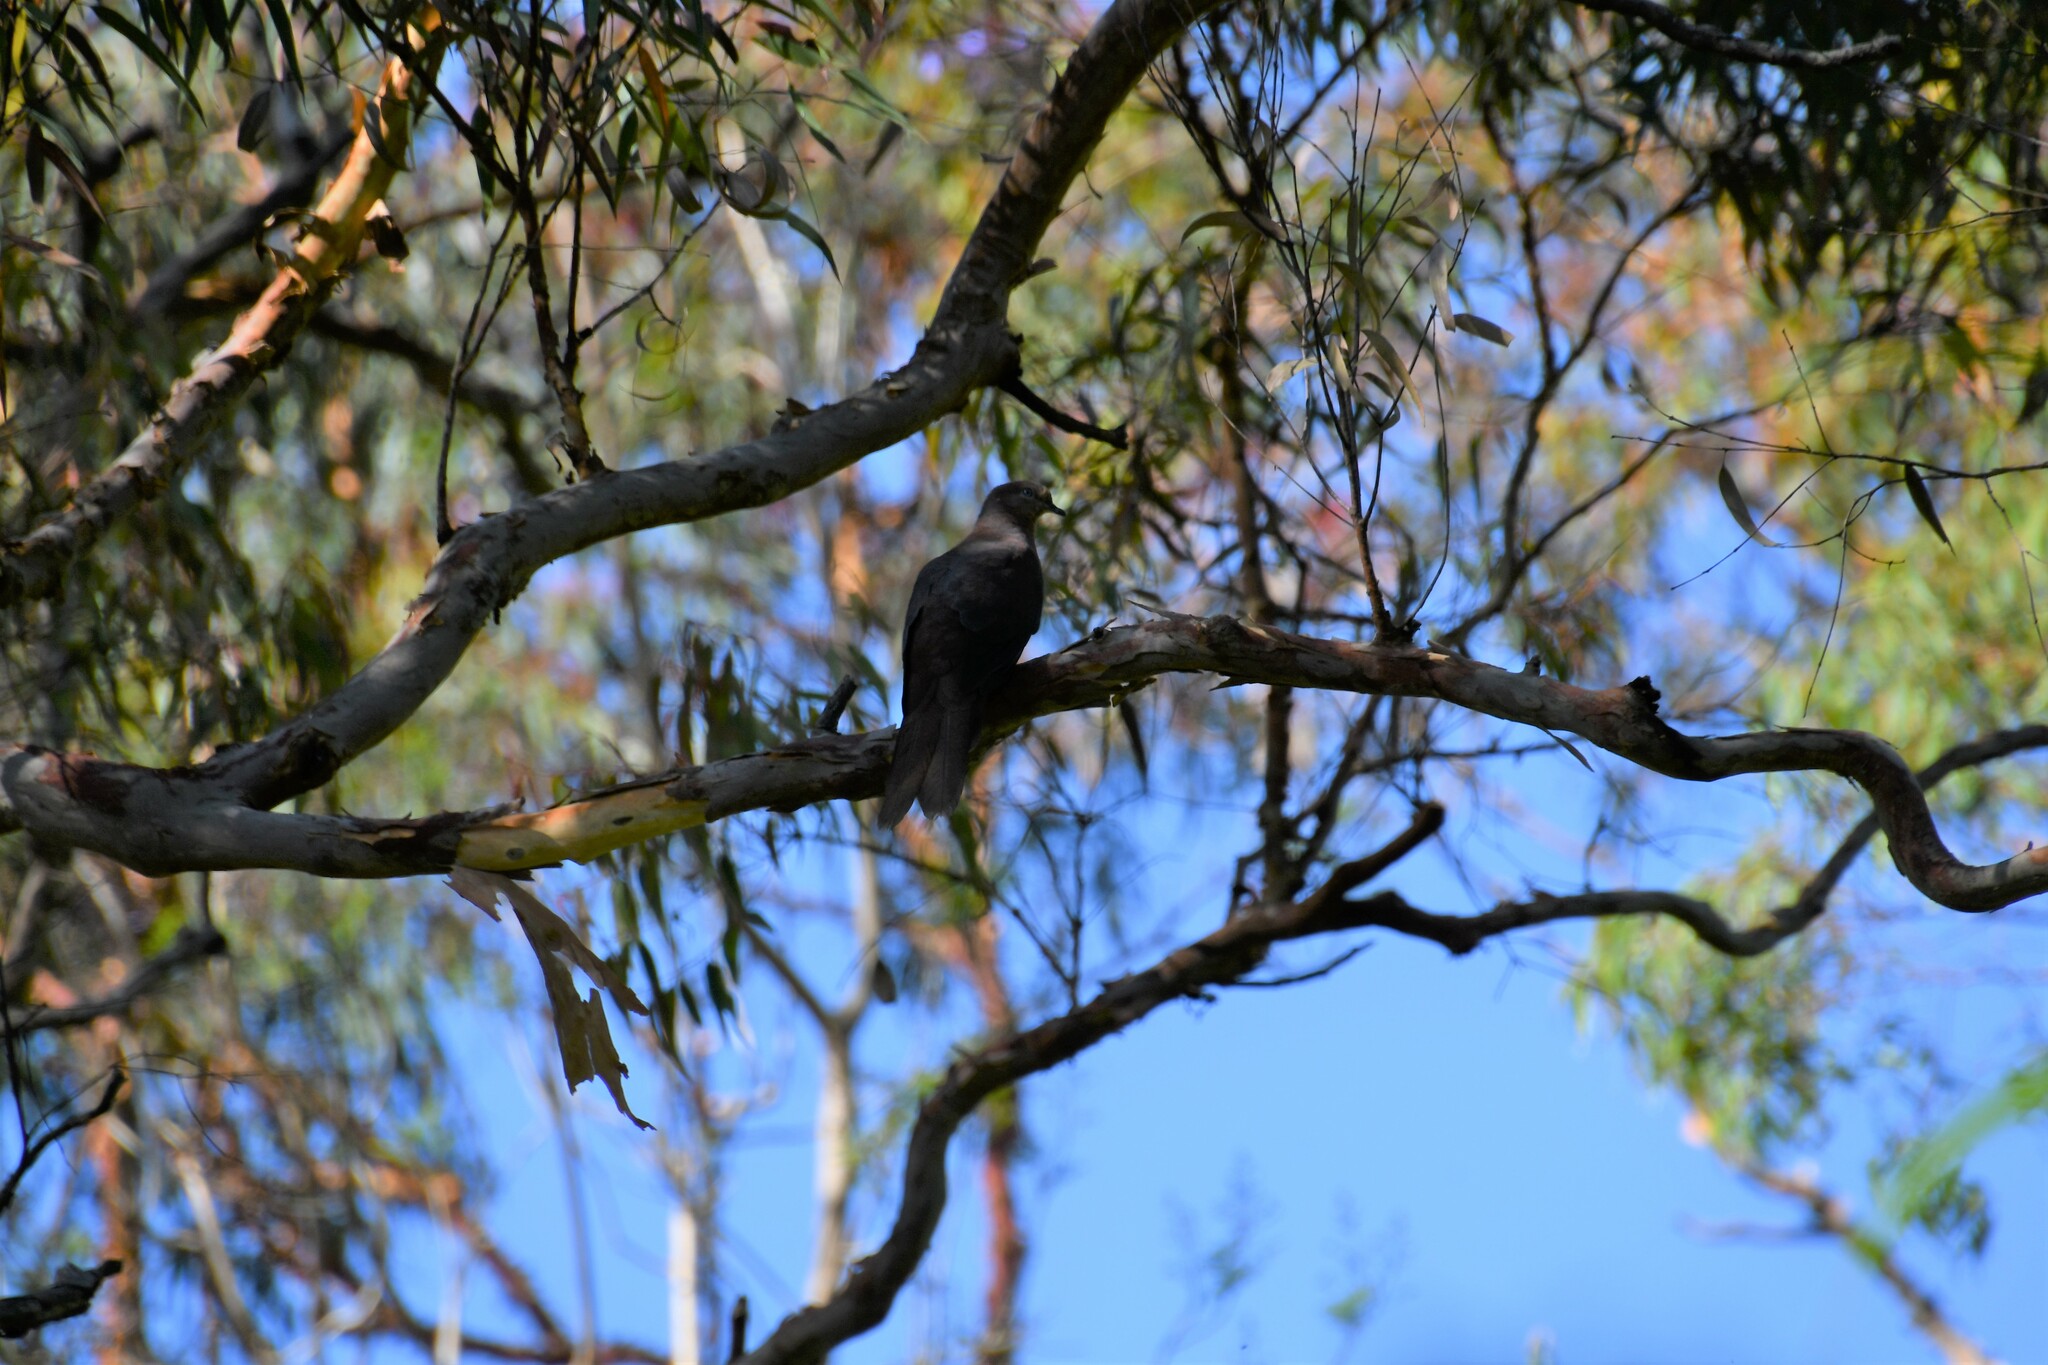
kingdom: Animalia
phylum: Chordata
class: Aves
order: Columbiformes
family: Columbidae
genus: Macropygia
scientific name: Macropygia phasianella
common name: Brown cuckoo-dove
